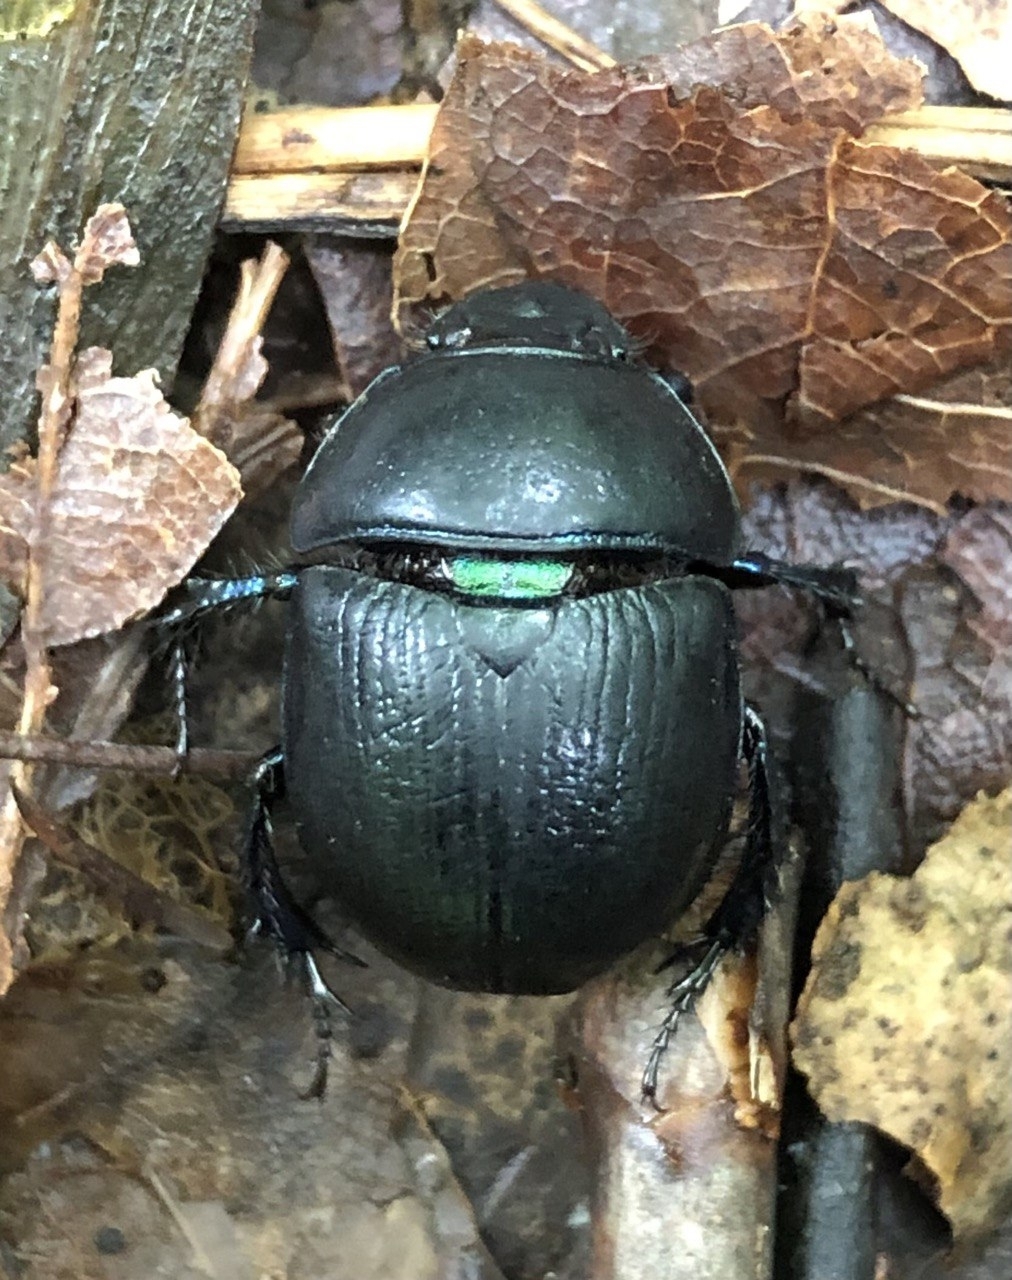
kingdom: Animalia
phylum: Arthropoda
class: Insecta
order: Coleoptera
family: Geotrupidae
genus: Anoplotrupes
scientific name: Anoplotrupes stercorosus
